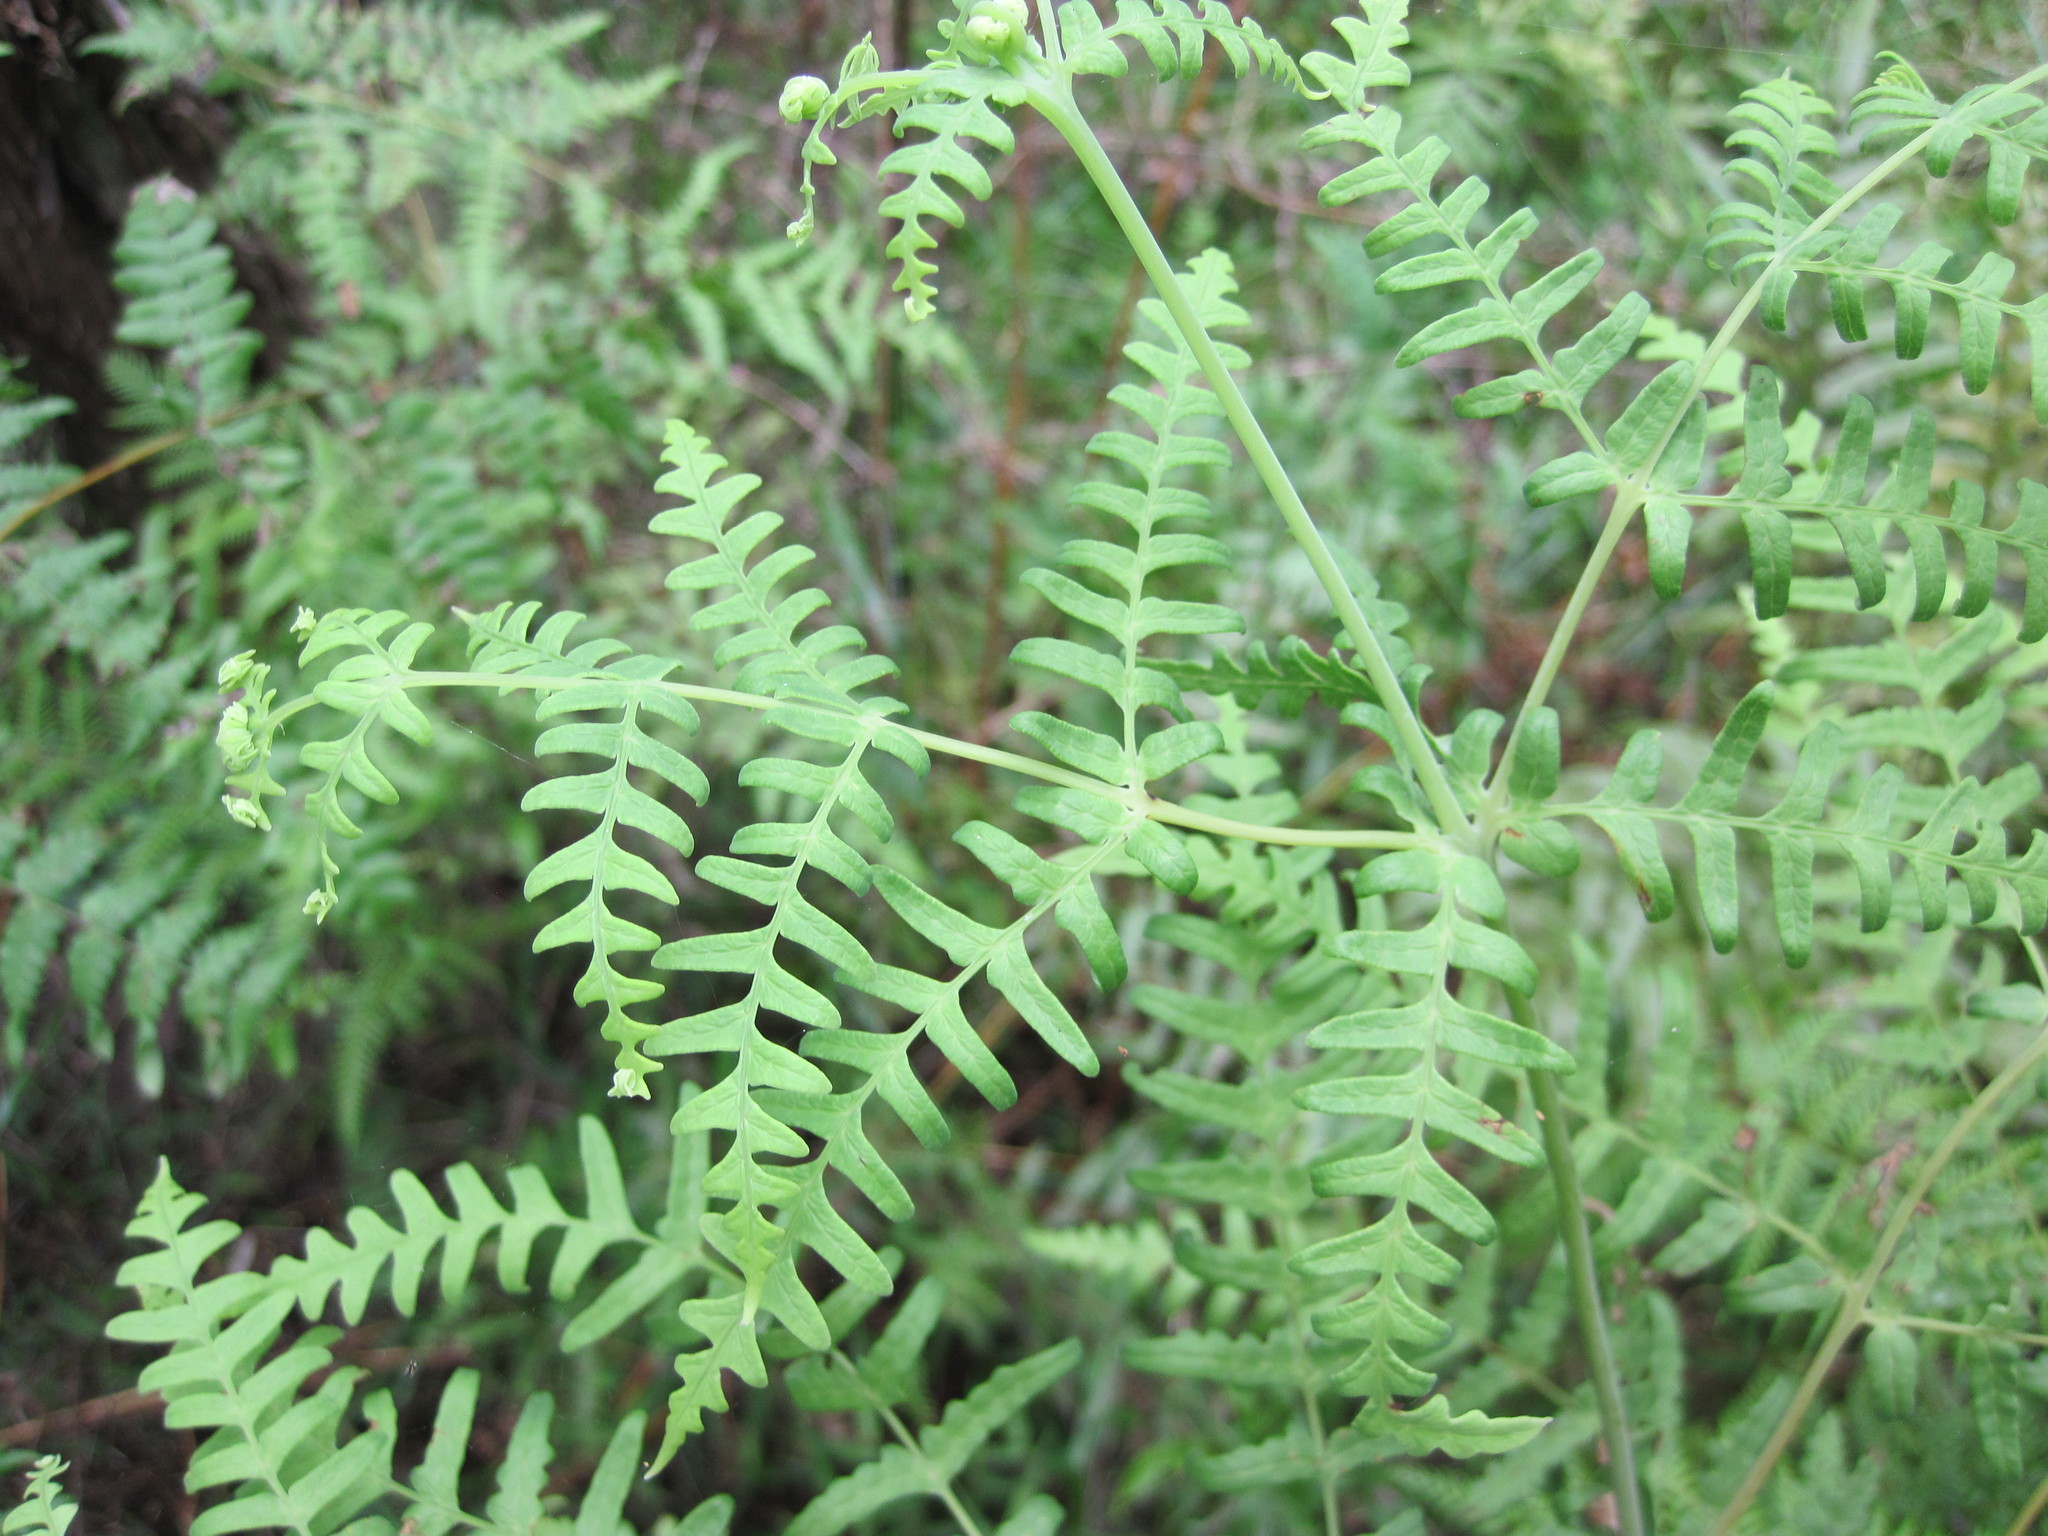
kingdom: Plantae
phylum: Tracheophyta
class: Polypodiopsida
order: Polypodiales
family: Dennstaedtiaceae
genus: Histiopteris
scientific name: Histiopteris incisa
